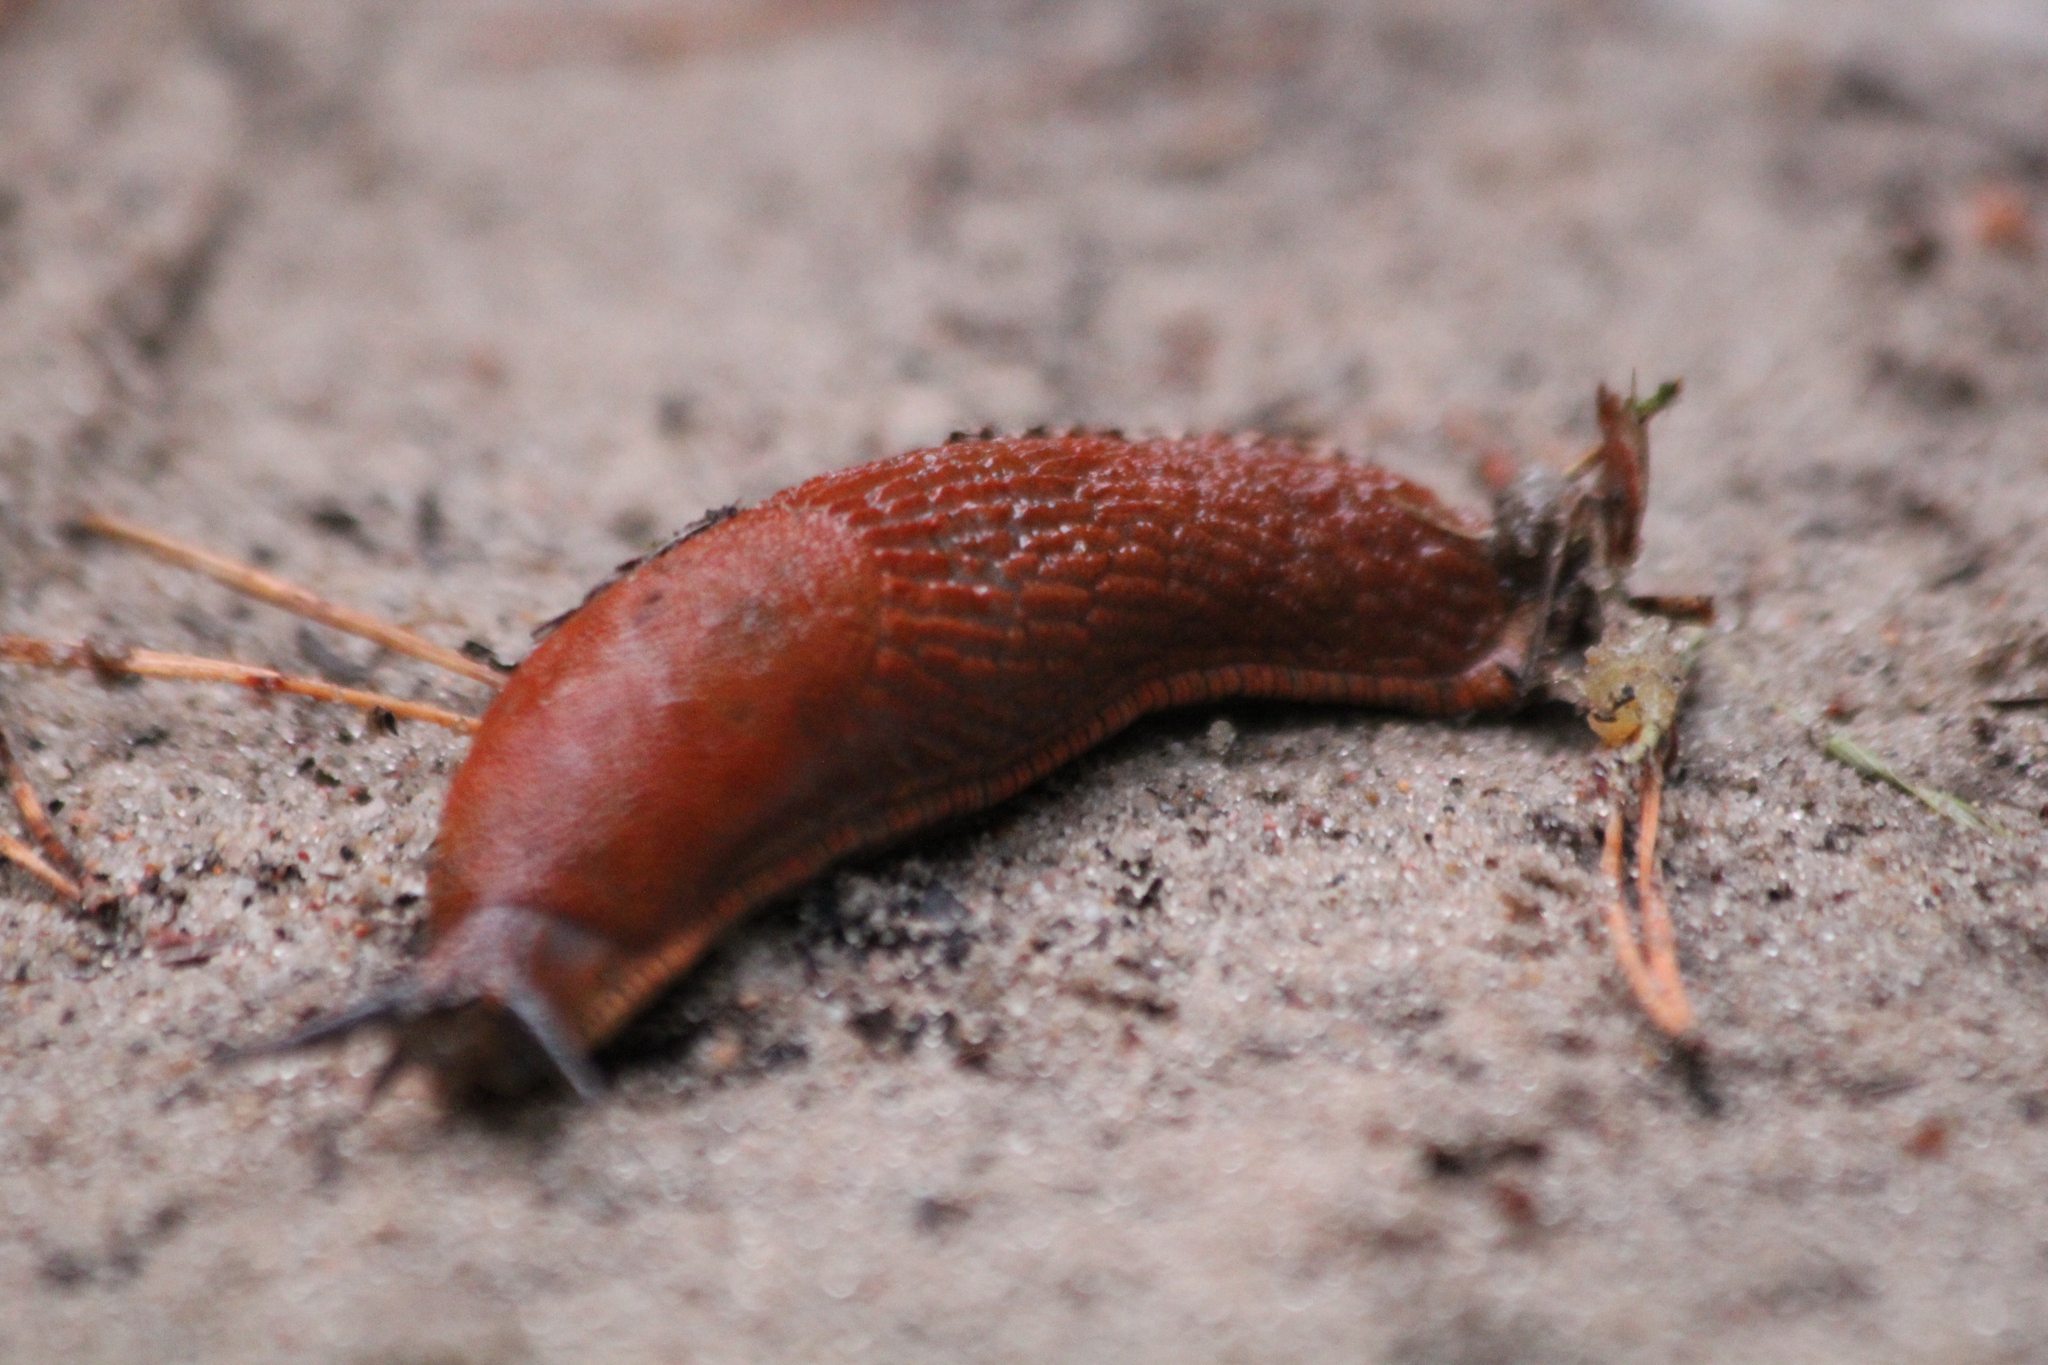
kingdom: Animalia
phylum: Mollusca
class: Gastropoda
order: Stylommatophora
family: Arionidae
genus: Arion
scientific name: Arion vulgaris
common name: Lusitanian slug
